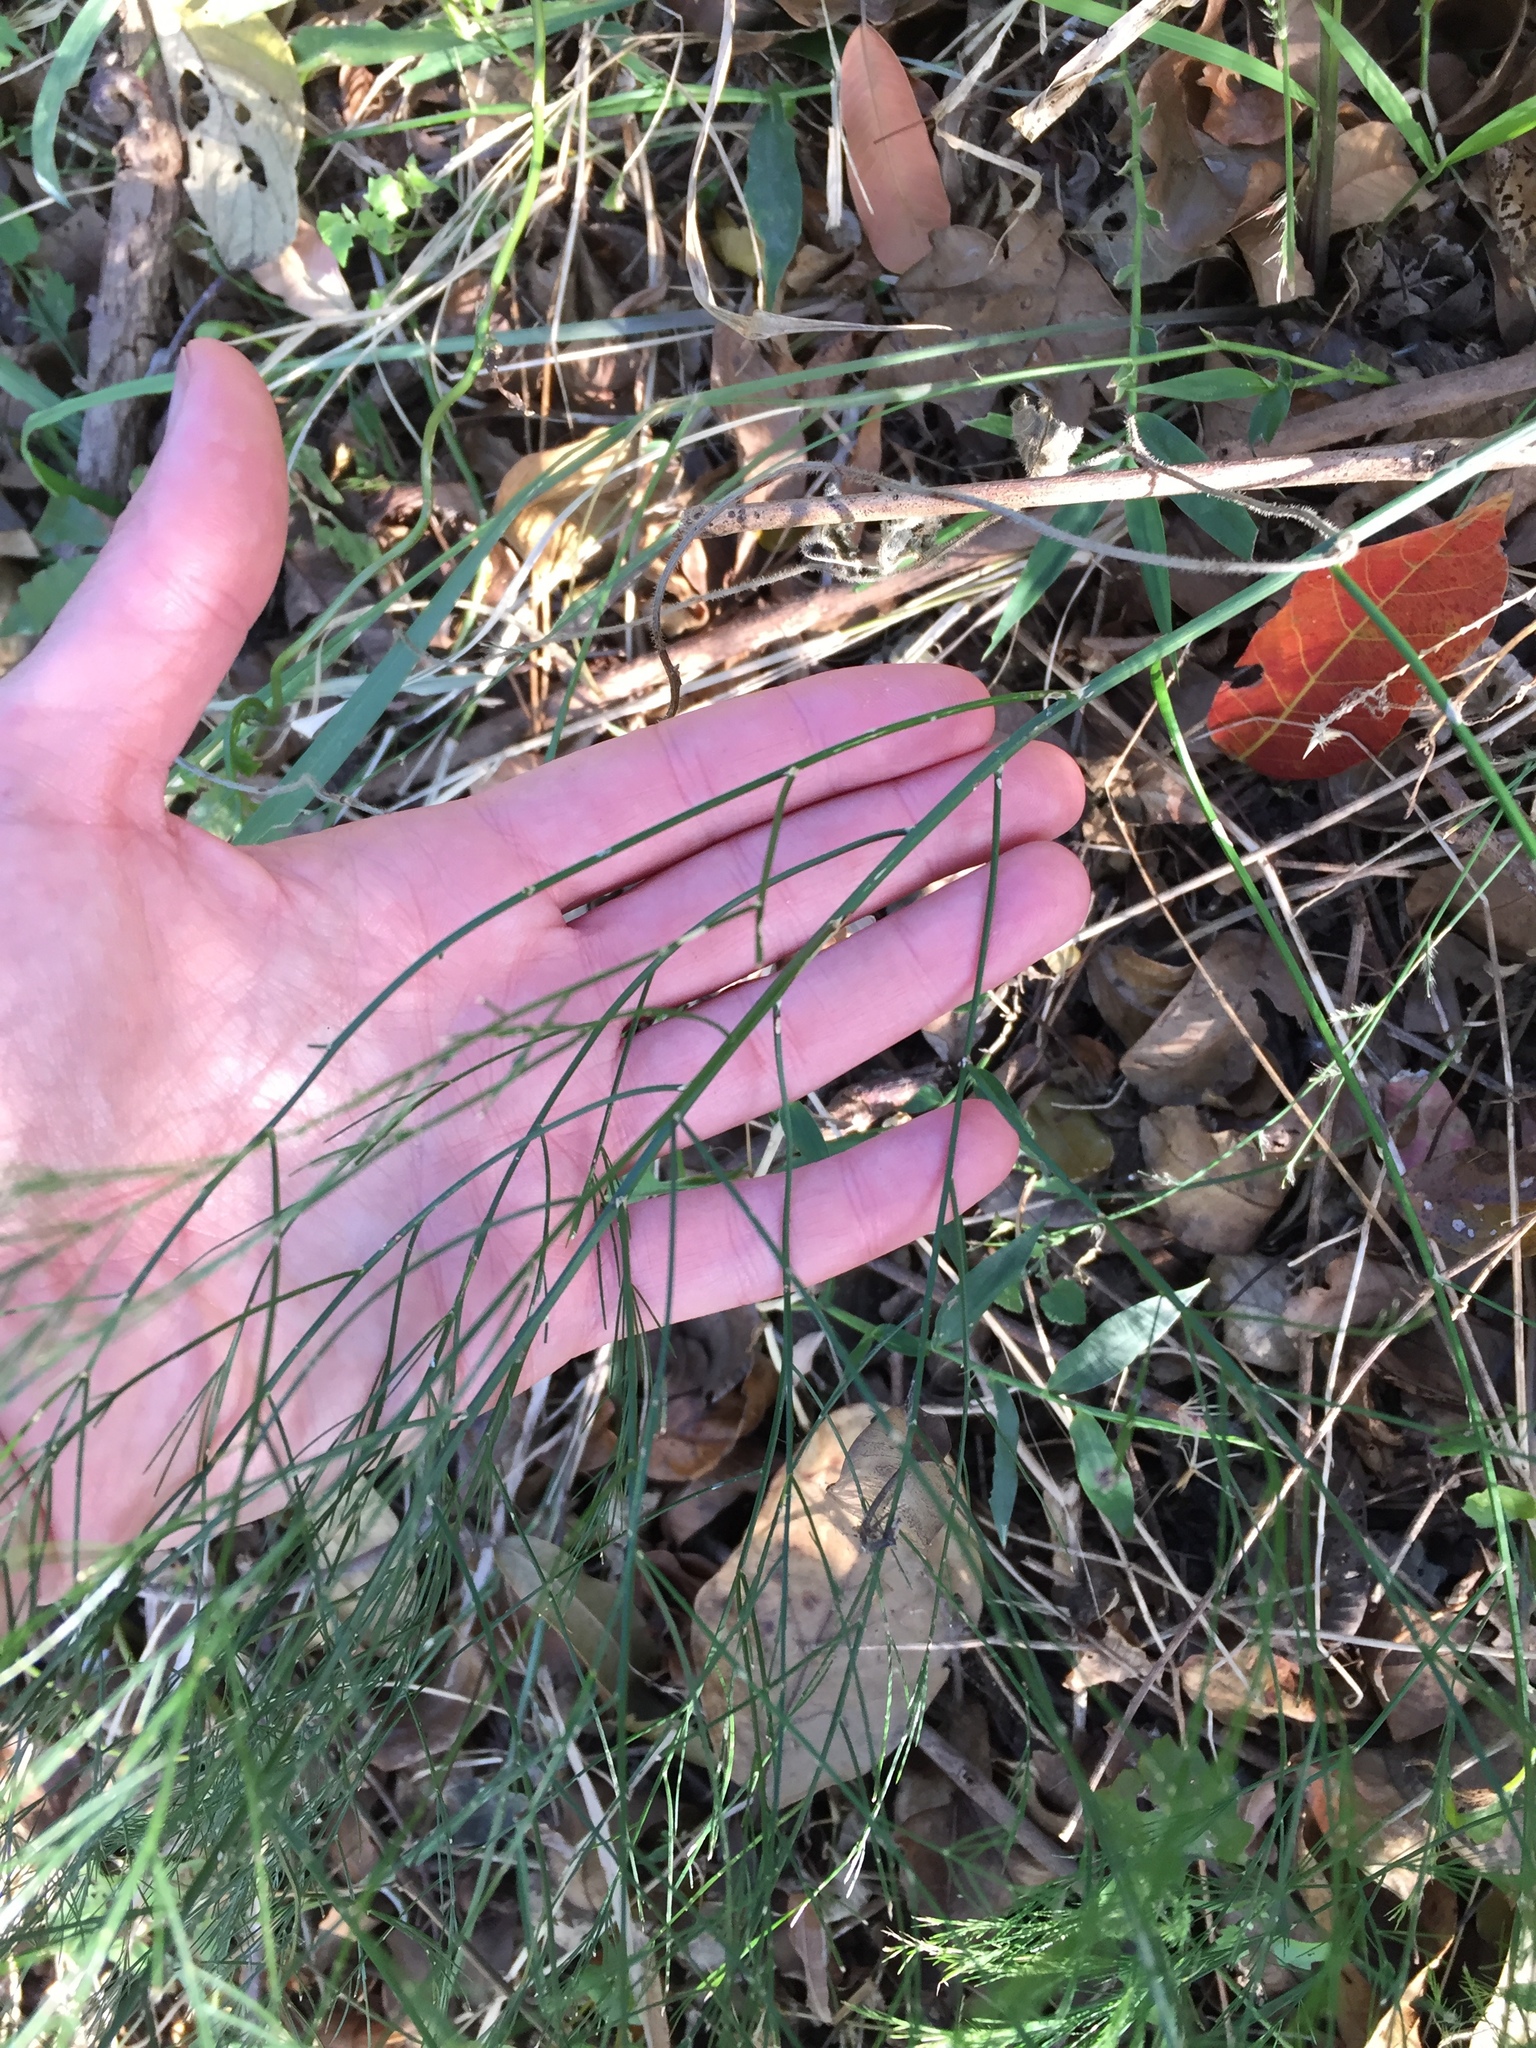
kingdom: Plantae
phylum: Tracheophyta
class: Liliopsida
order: Asparagales
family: Asparagaceae
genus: Asparagus
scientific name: Asparagus virgatus
